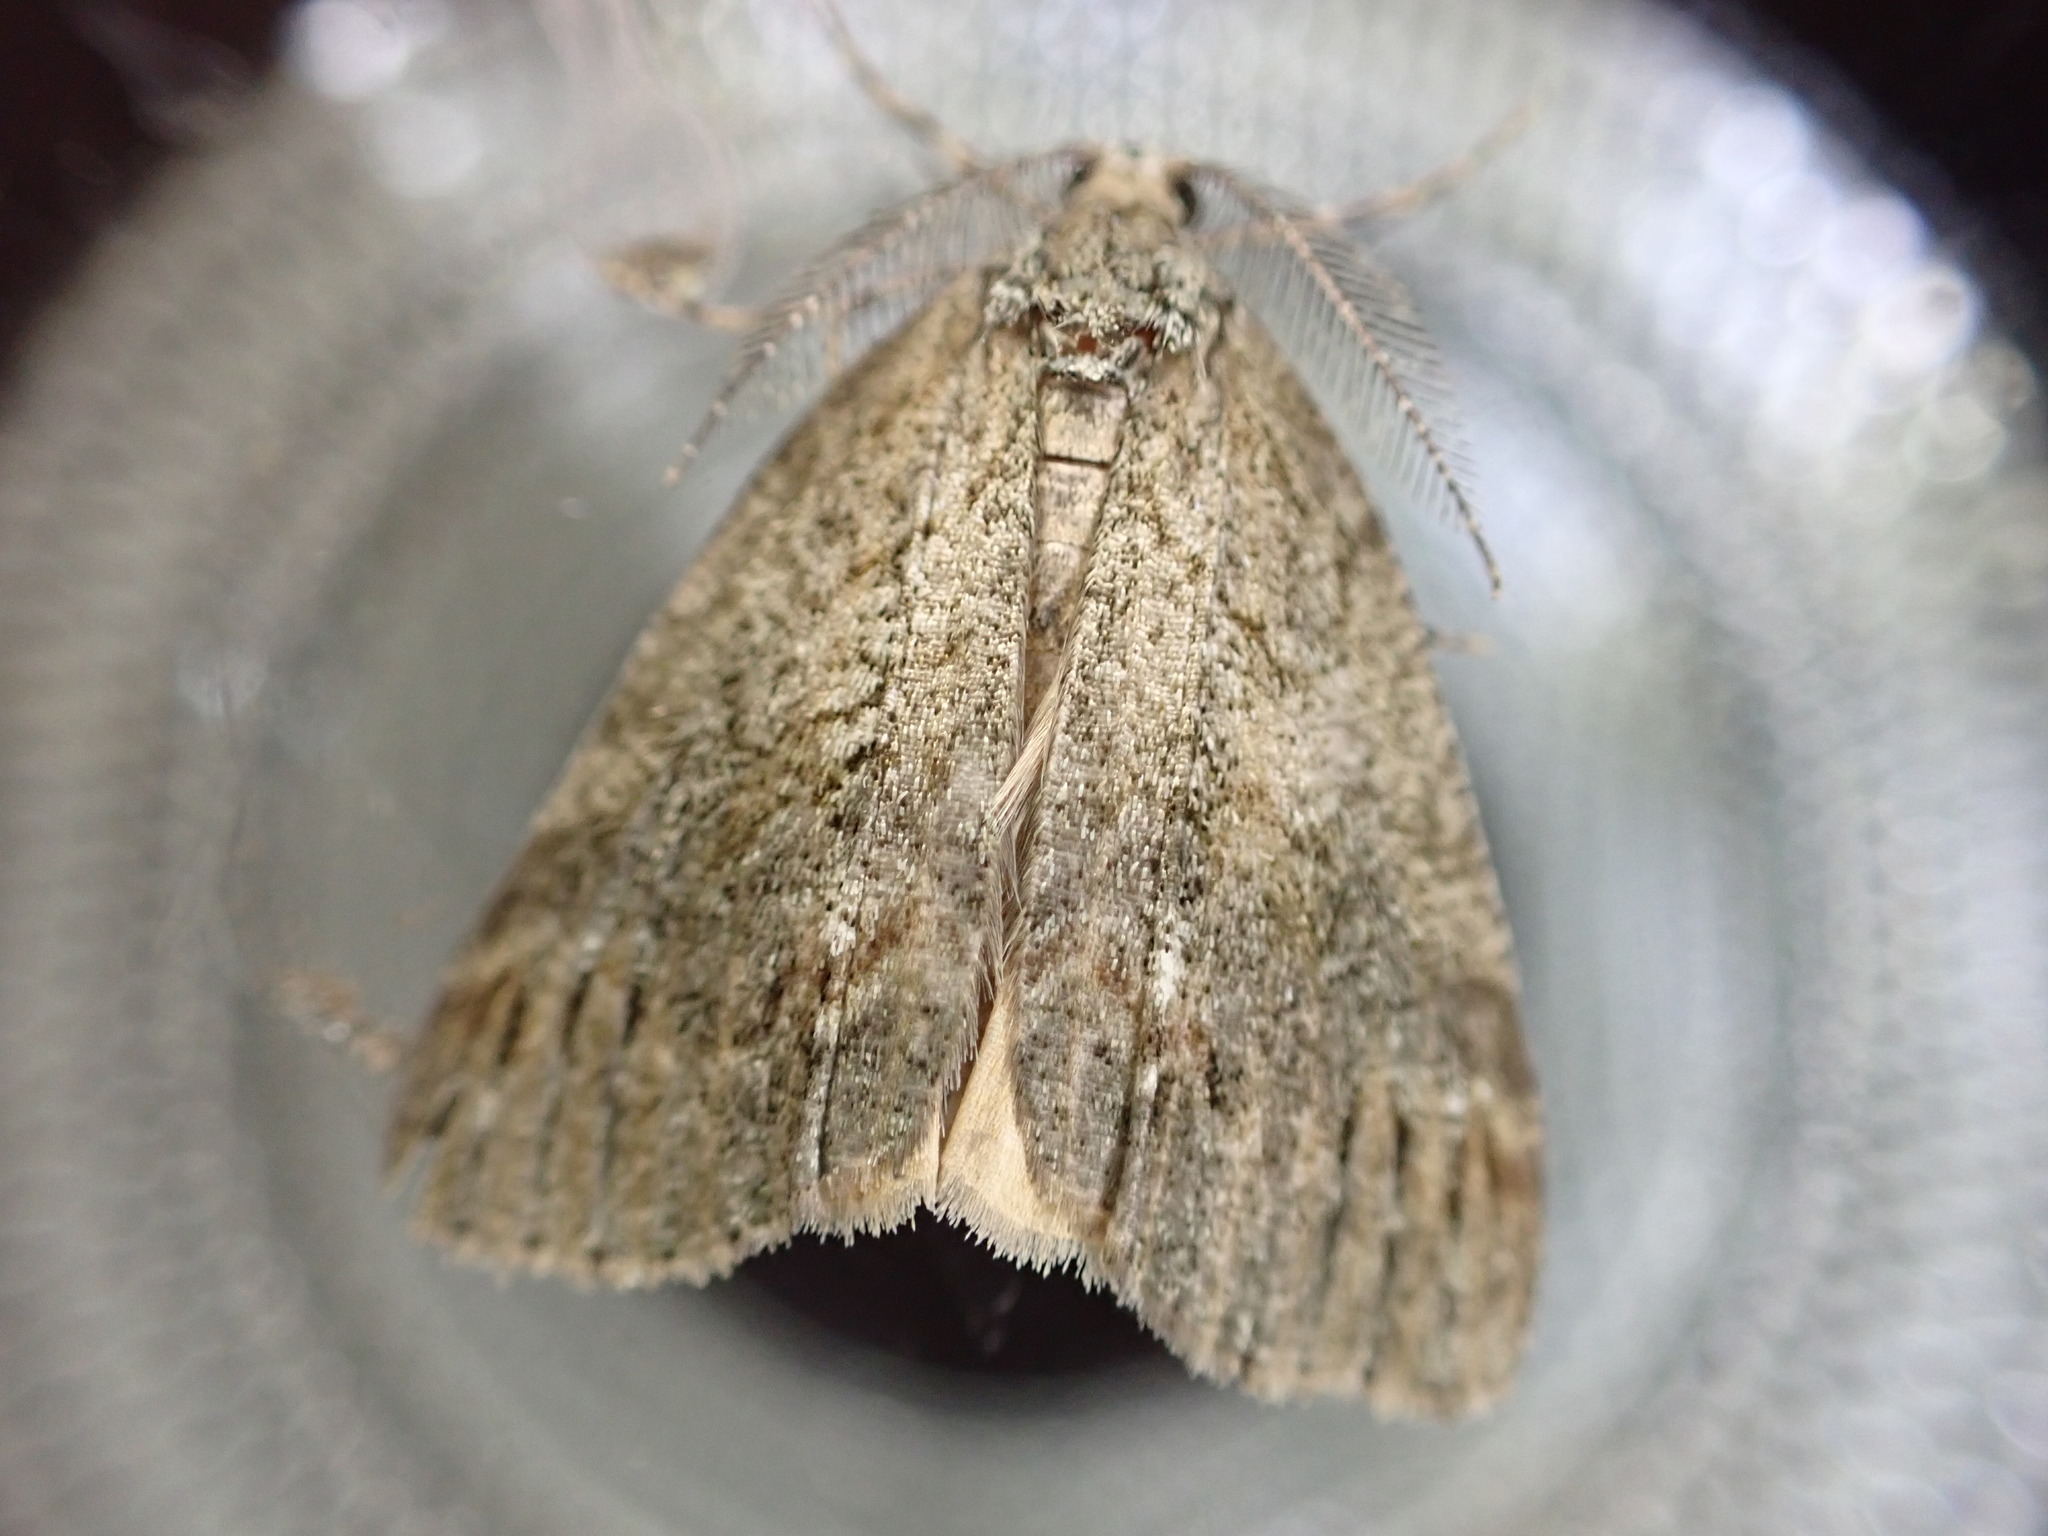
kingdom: Animalia
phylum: Arthropoda
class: Insecta
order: Lepidoptera
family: Geometridae
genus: Chalastra
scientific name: Chalastra ochrea
